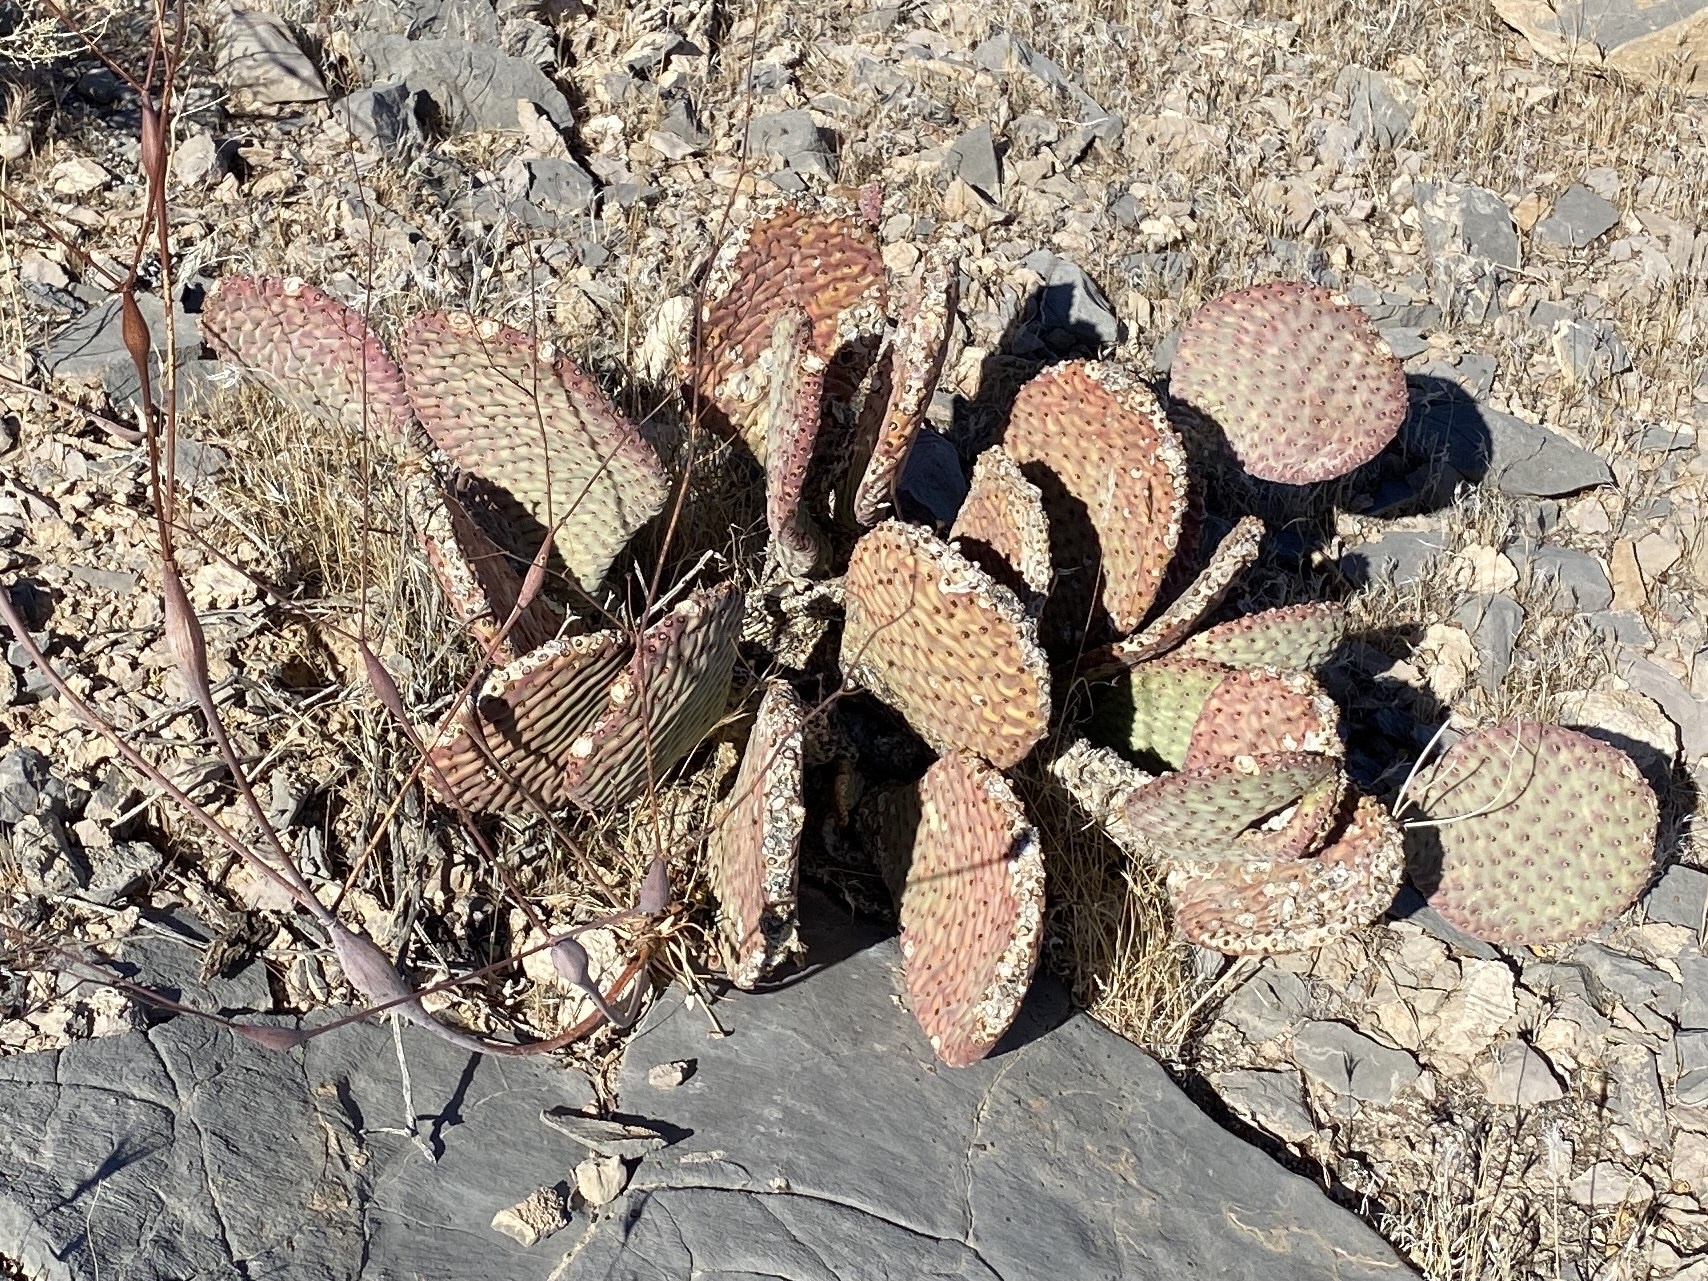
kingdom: Plantae
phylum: Tracheophyta
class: Magnoliopsida
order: Caryophyllales
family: Cactaceae
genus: Opuntia
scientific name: Opuntia basilaris
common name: Beavertail prickly-pear
